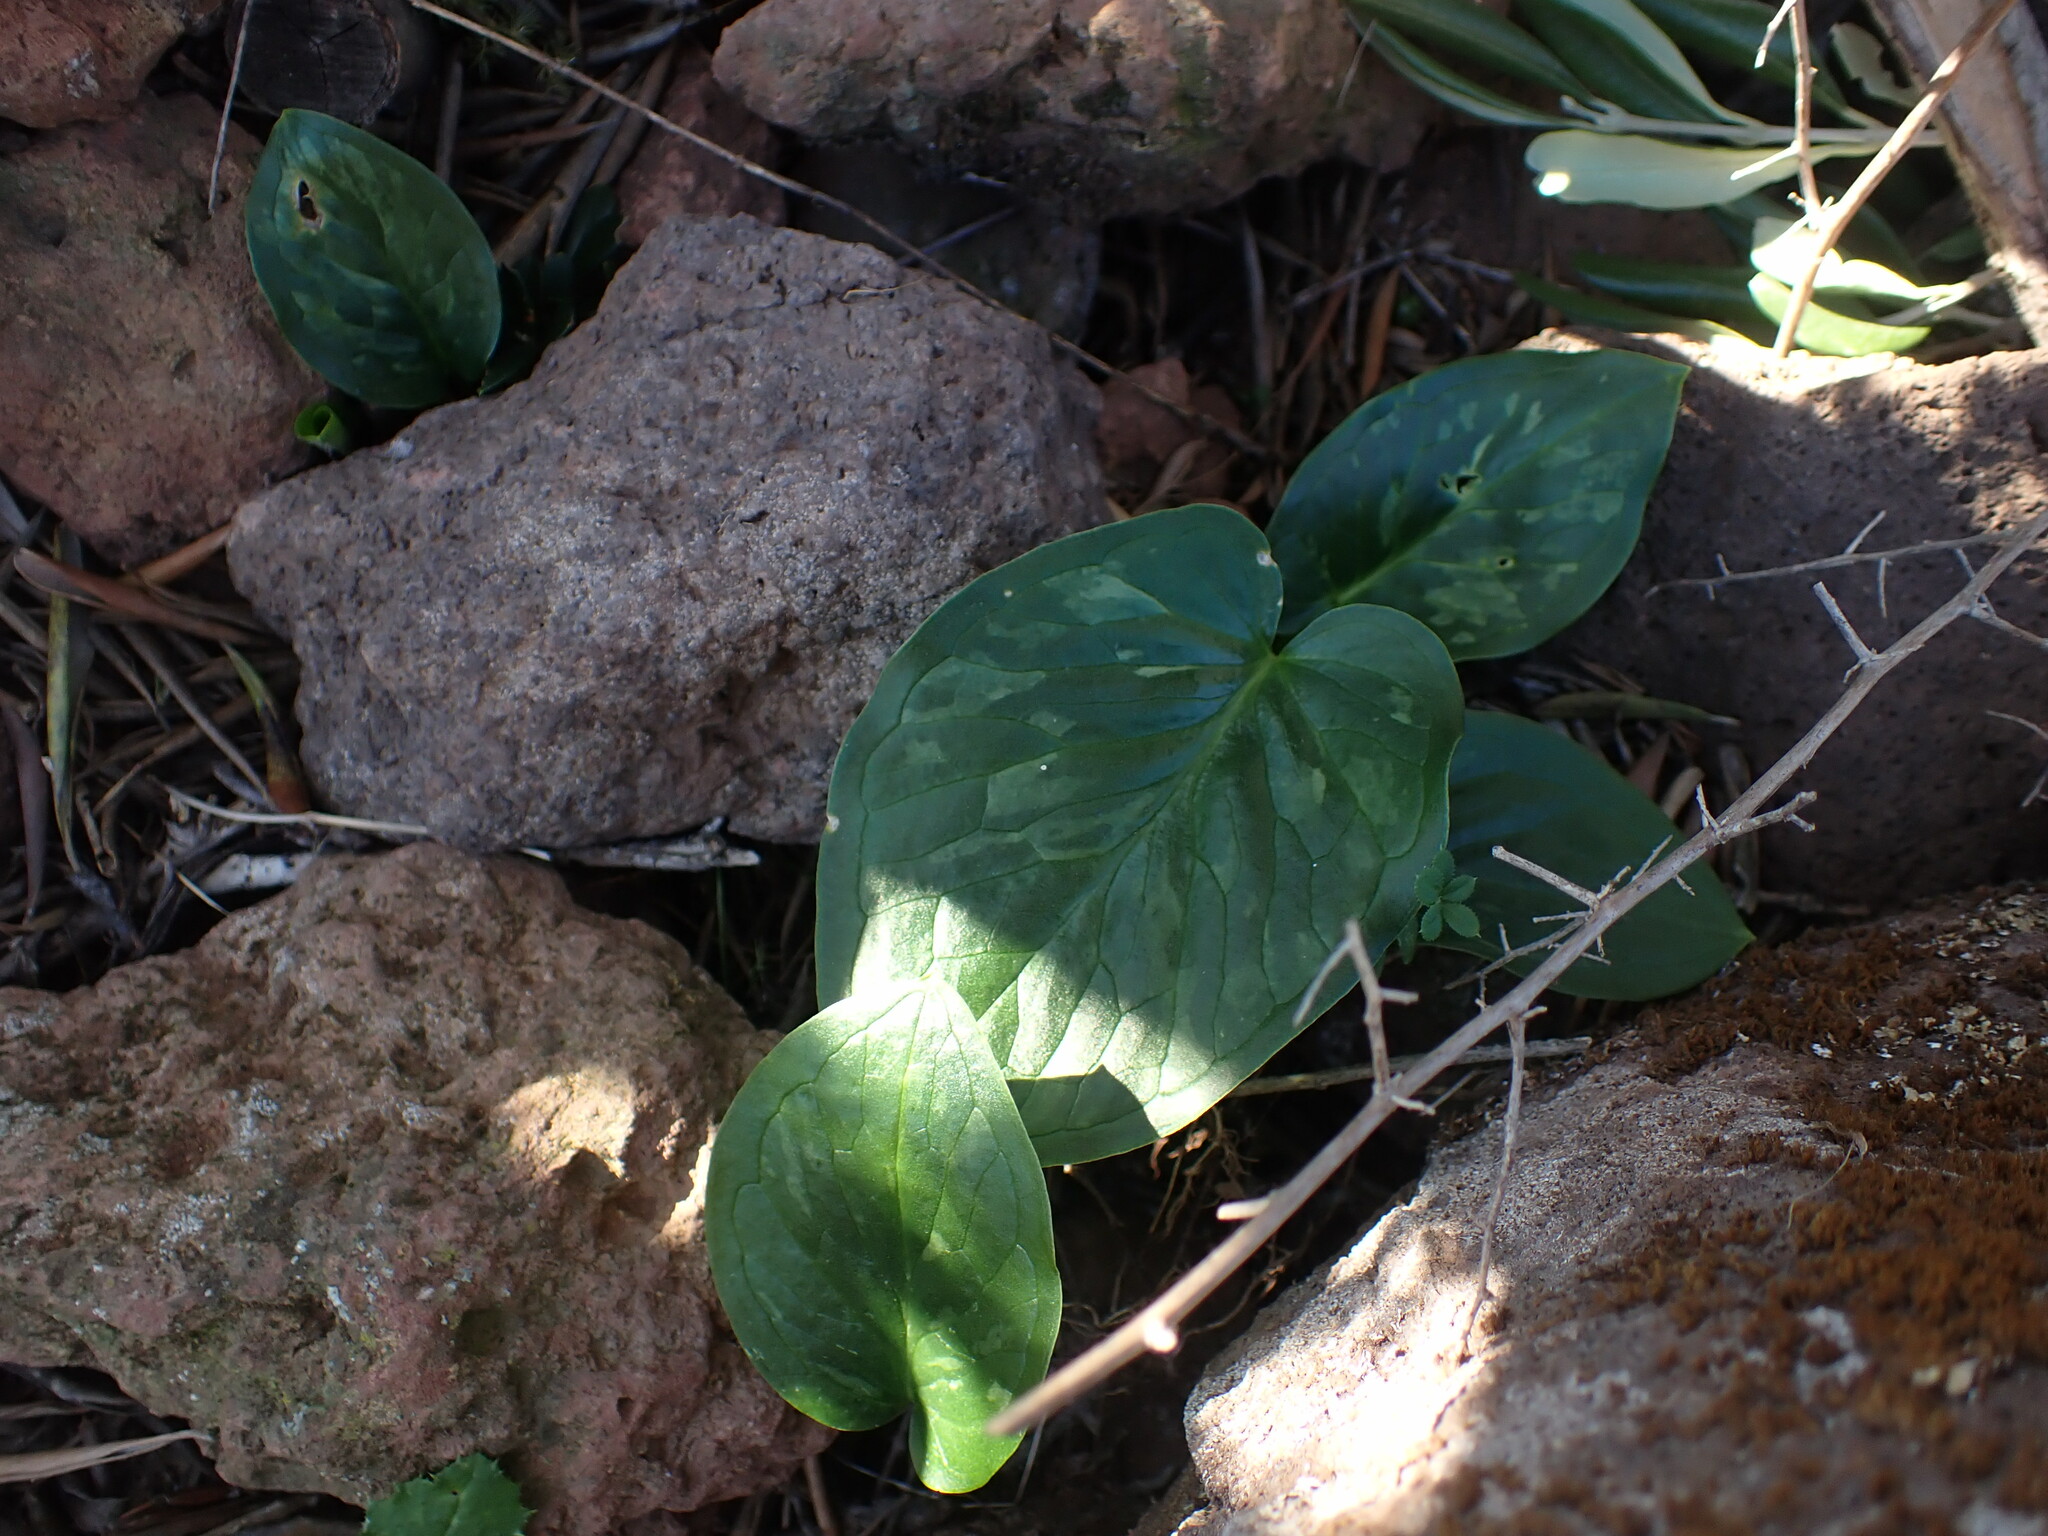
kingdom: Plantae
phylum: Tracheophyta
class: Liliopsida
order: Alismatales
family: Araceae
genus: Arum
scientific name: Arum italicum
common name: Italian lords-and-ladies
